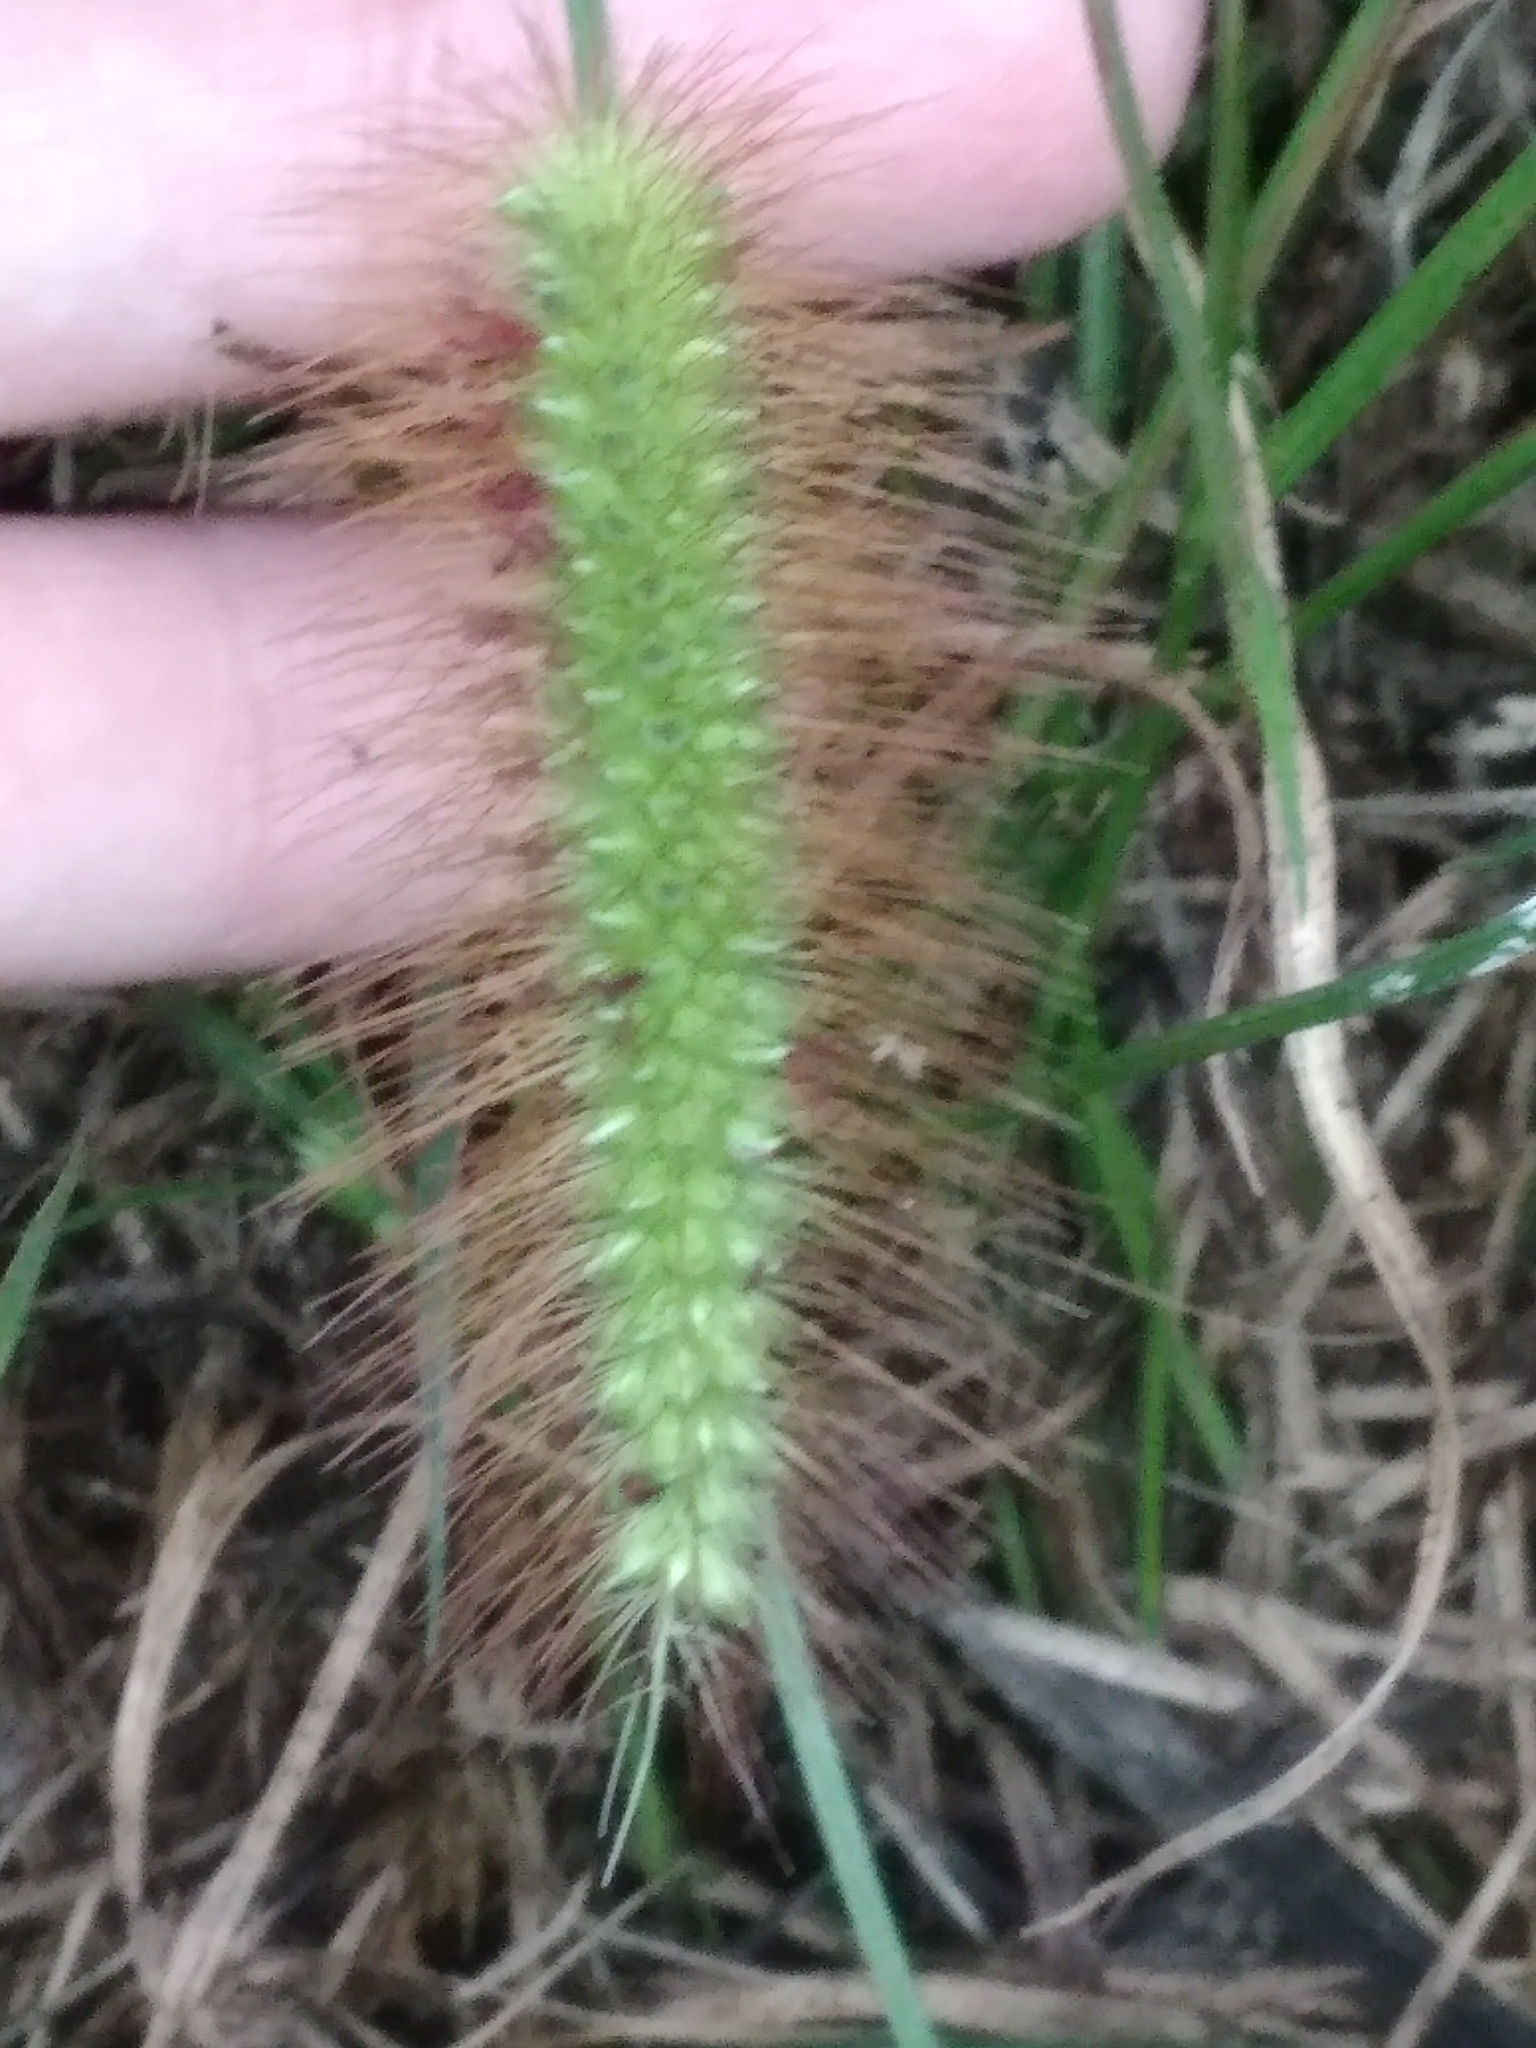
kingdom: Plantae
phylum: Tracheophyta
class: Liliopsida
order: Poales
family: Poaceae
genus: Setaria
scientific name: Setaria pumila
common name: Yellow bristle-grass
